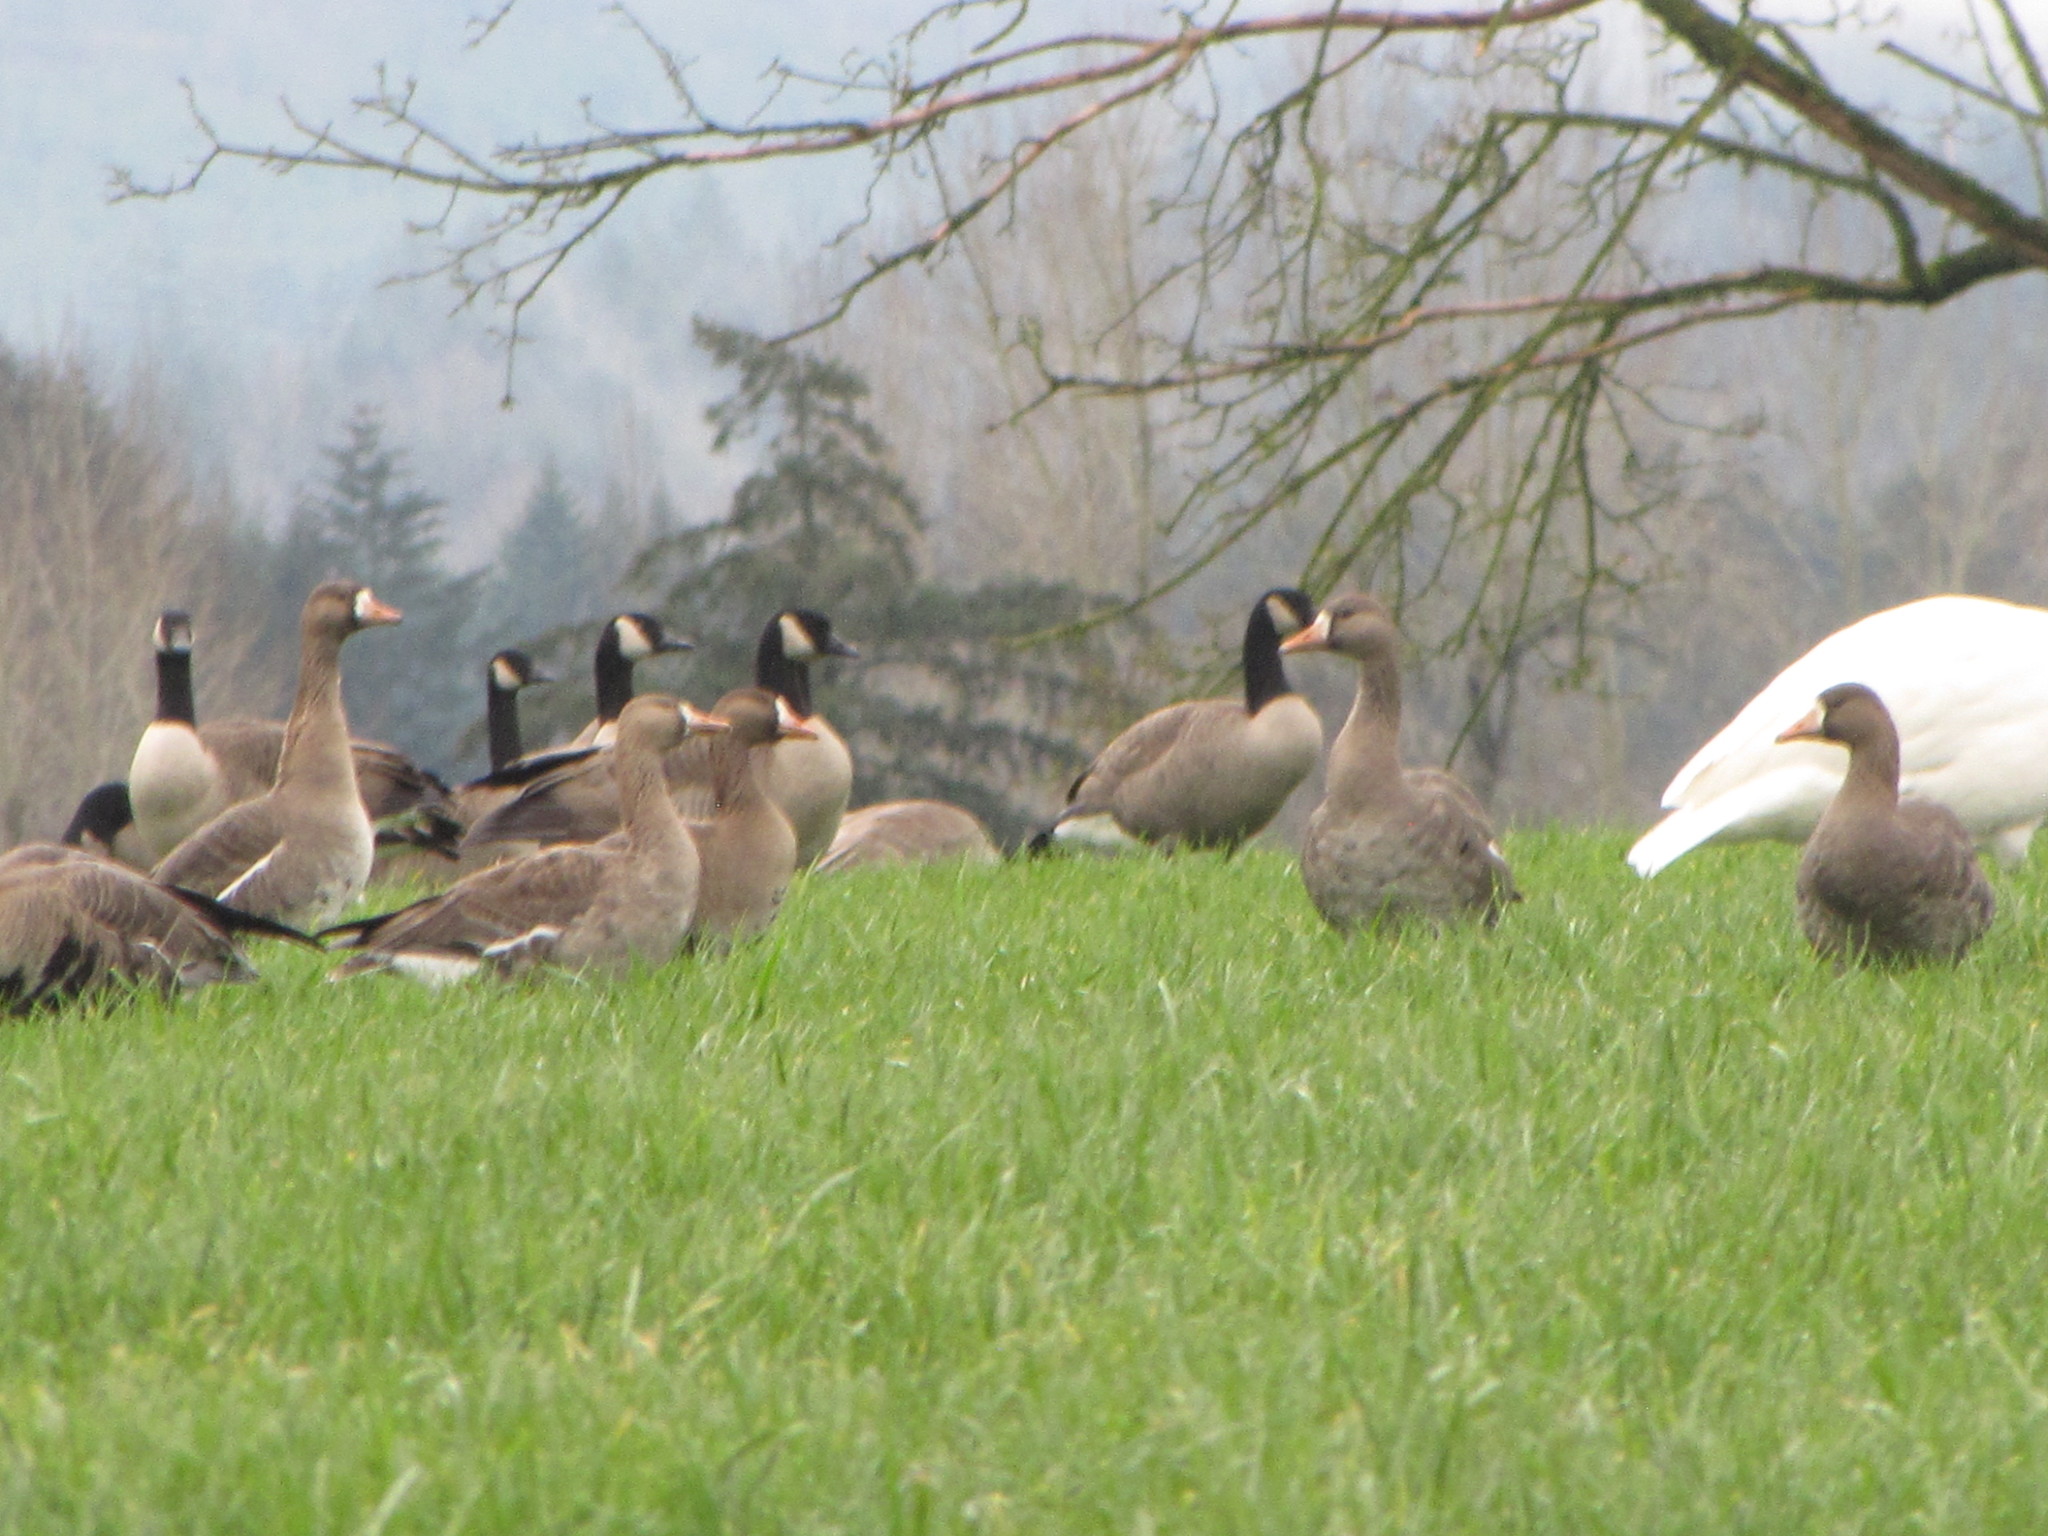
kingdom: Animalia
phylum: Chordata
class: Aves
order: Anseriformes
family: Anatidae
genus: Cygnus
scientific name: Cygnus
